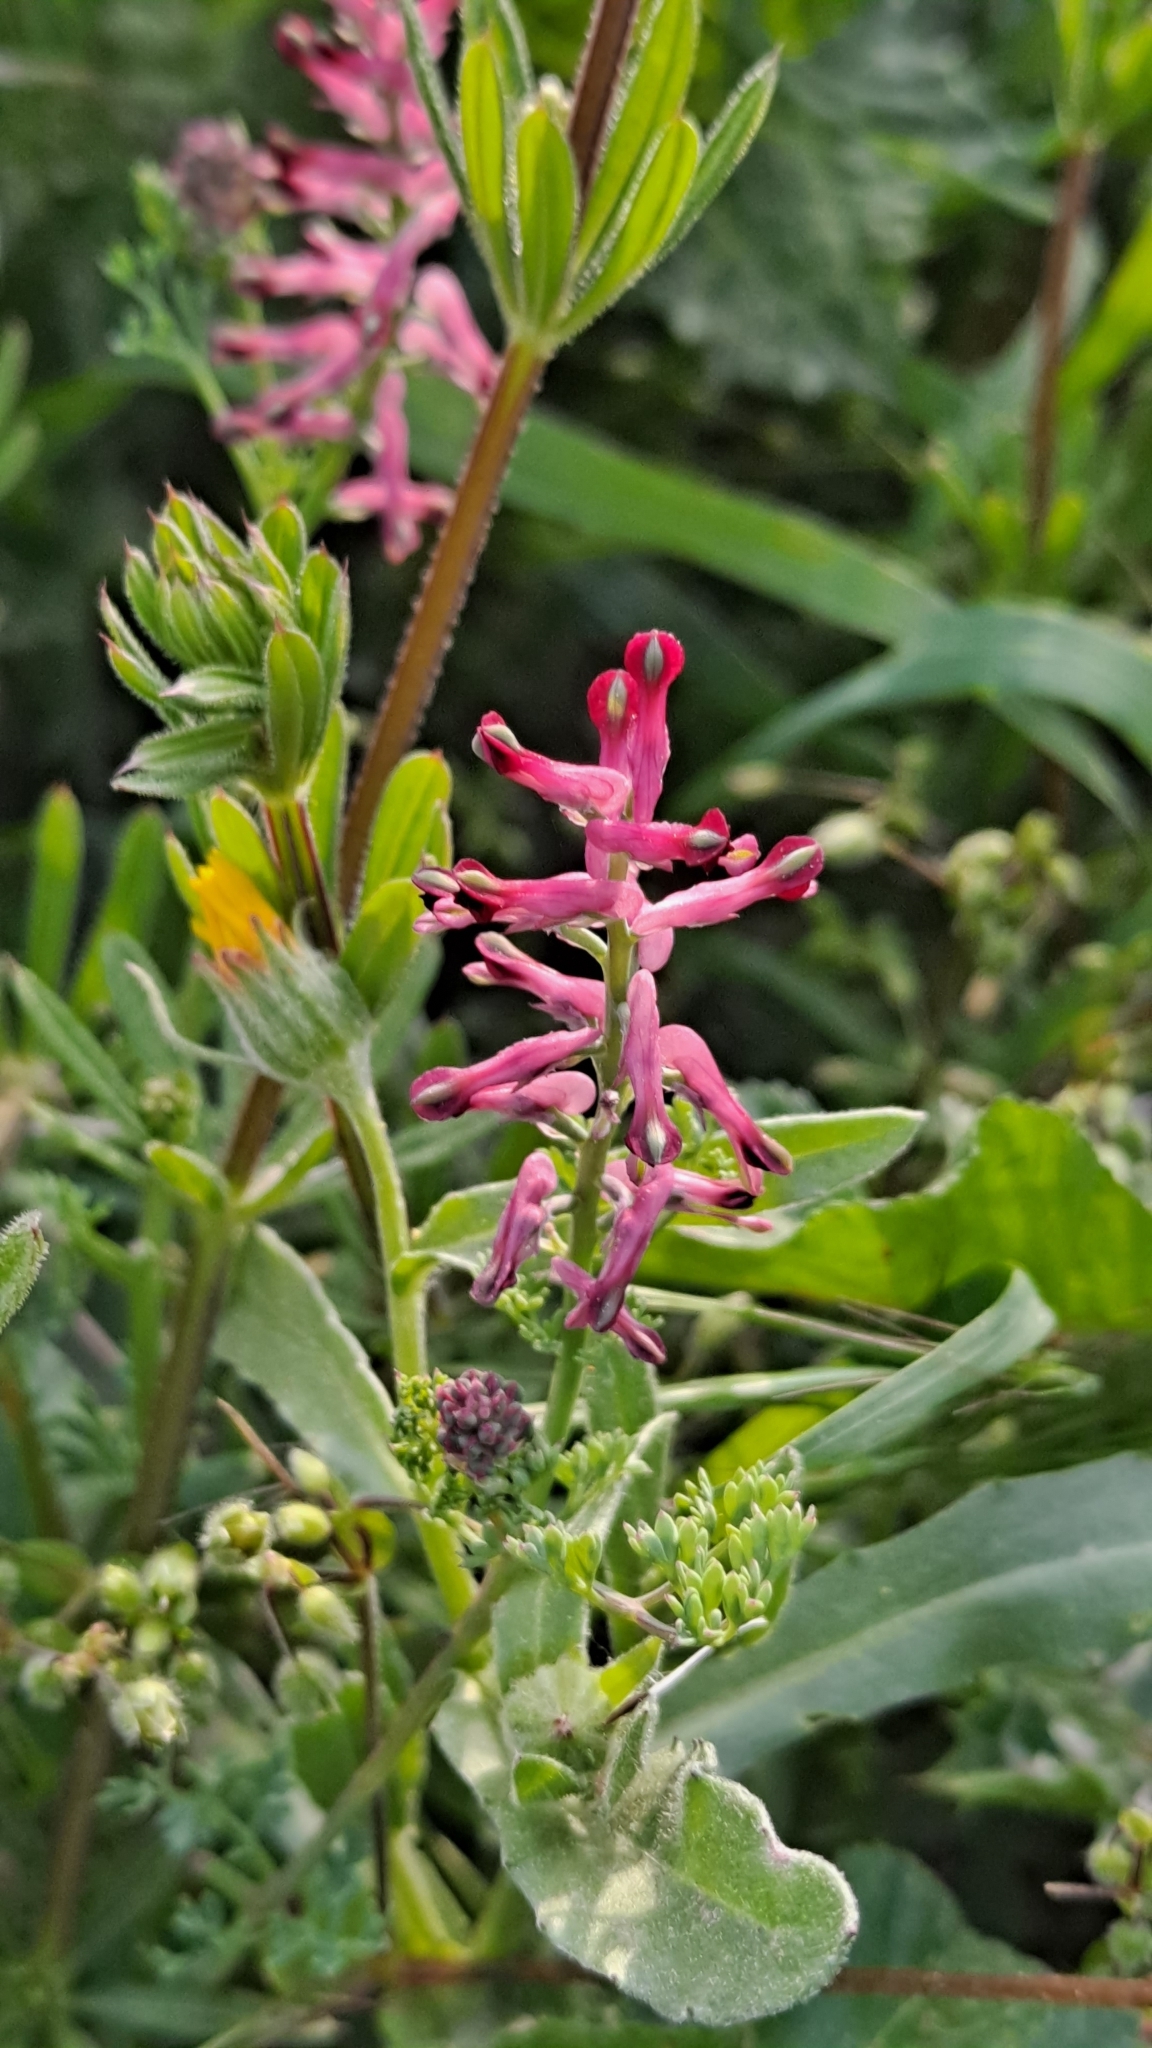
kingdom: Plantae
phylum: Tracheophyta
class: Magnoliopsida
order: Ranunculales
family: Papaveraceae
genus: Fumaria
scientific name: Fumaria officinalis
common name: Common fumitory
